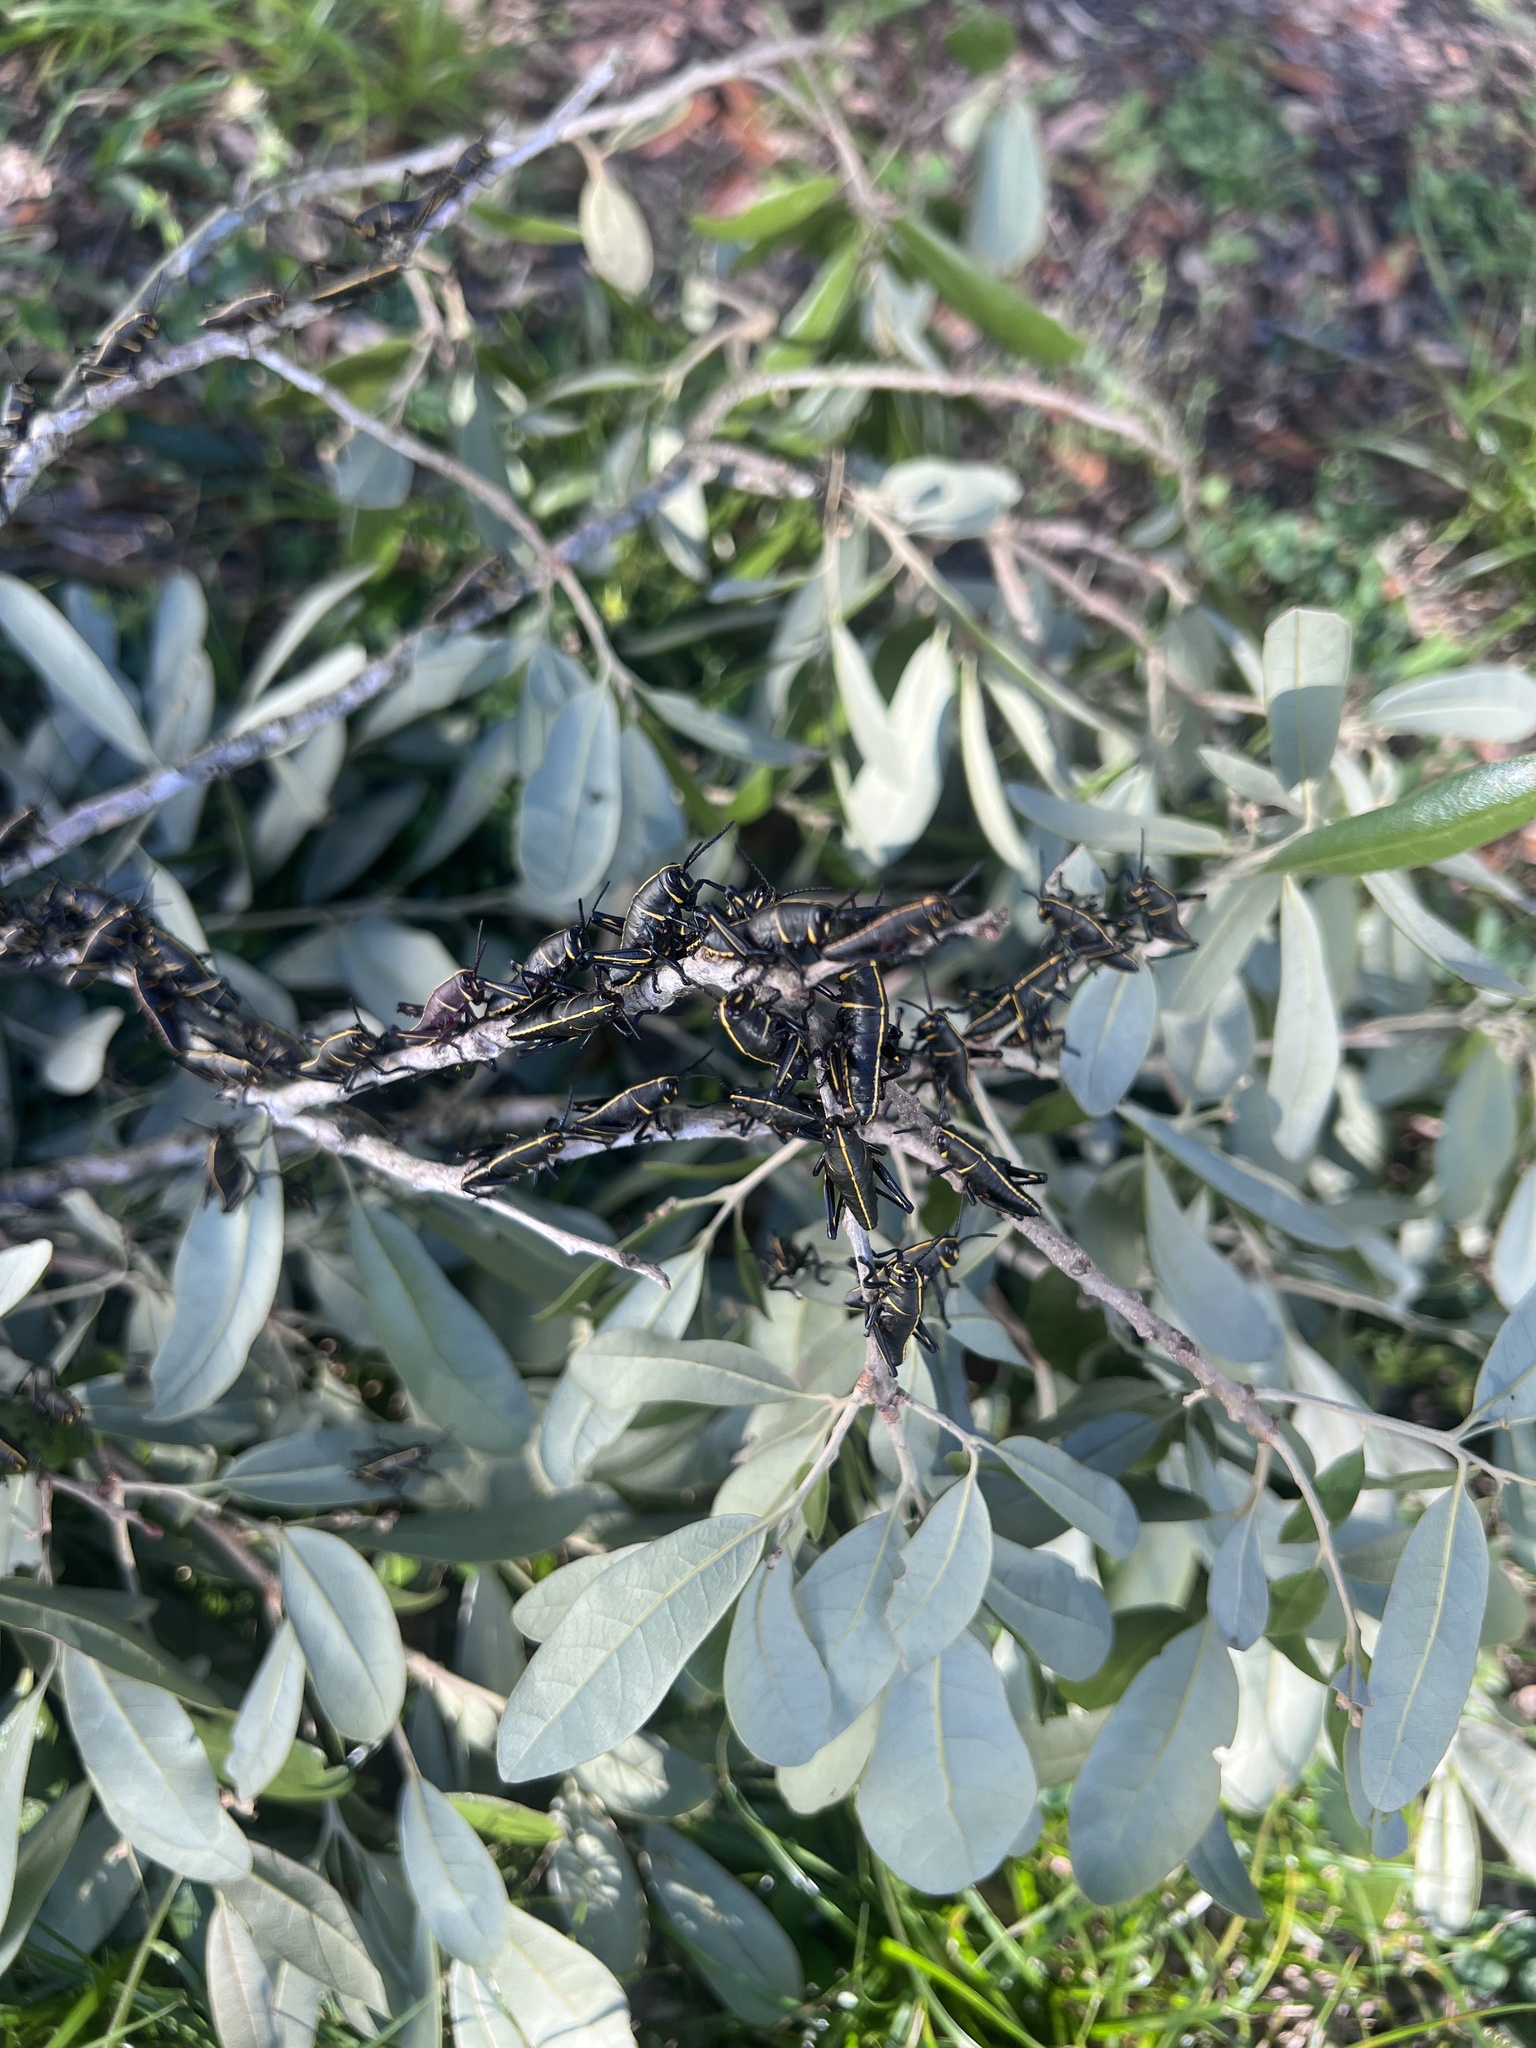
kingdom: Animalia
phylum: Arthropoda
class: Insecta
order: Orthoptera
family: Romaleidae
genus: Romalea
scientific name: Romalea microptera
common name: Eastern lubber grasshopper
